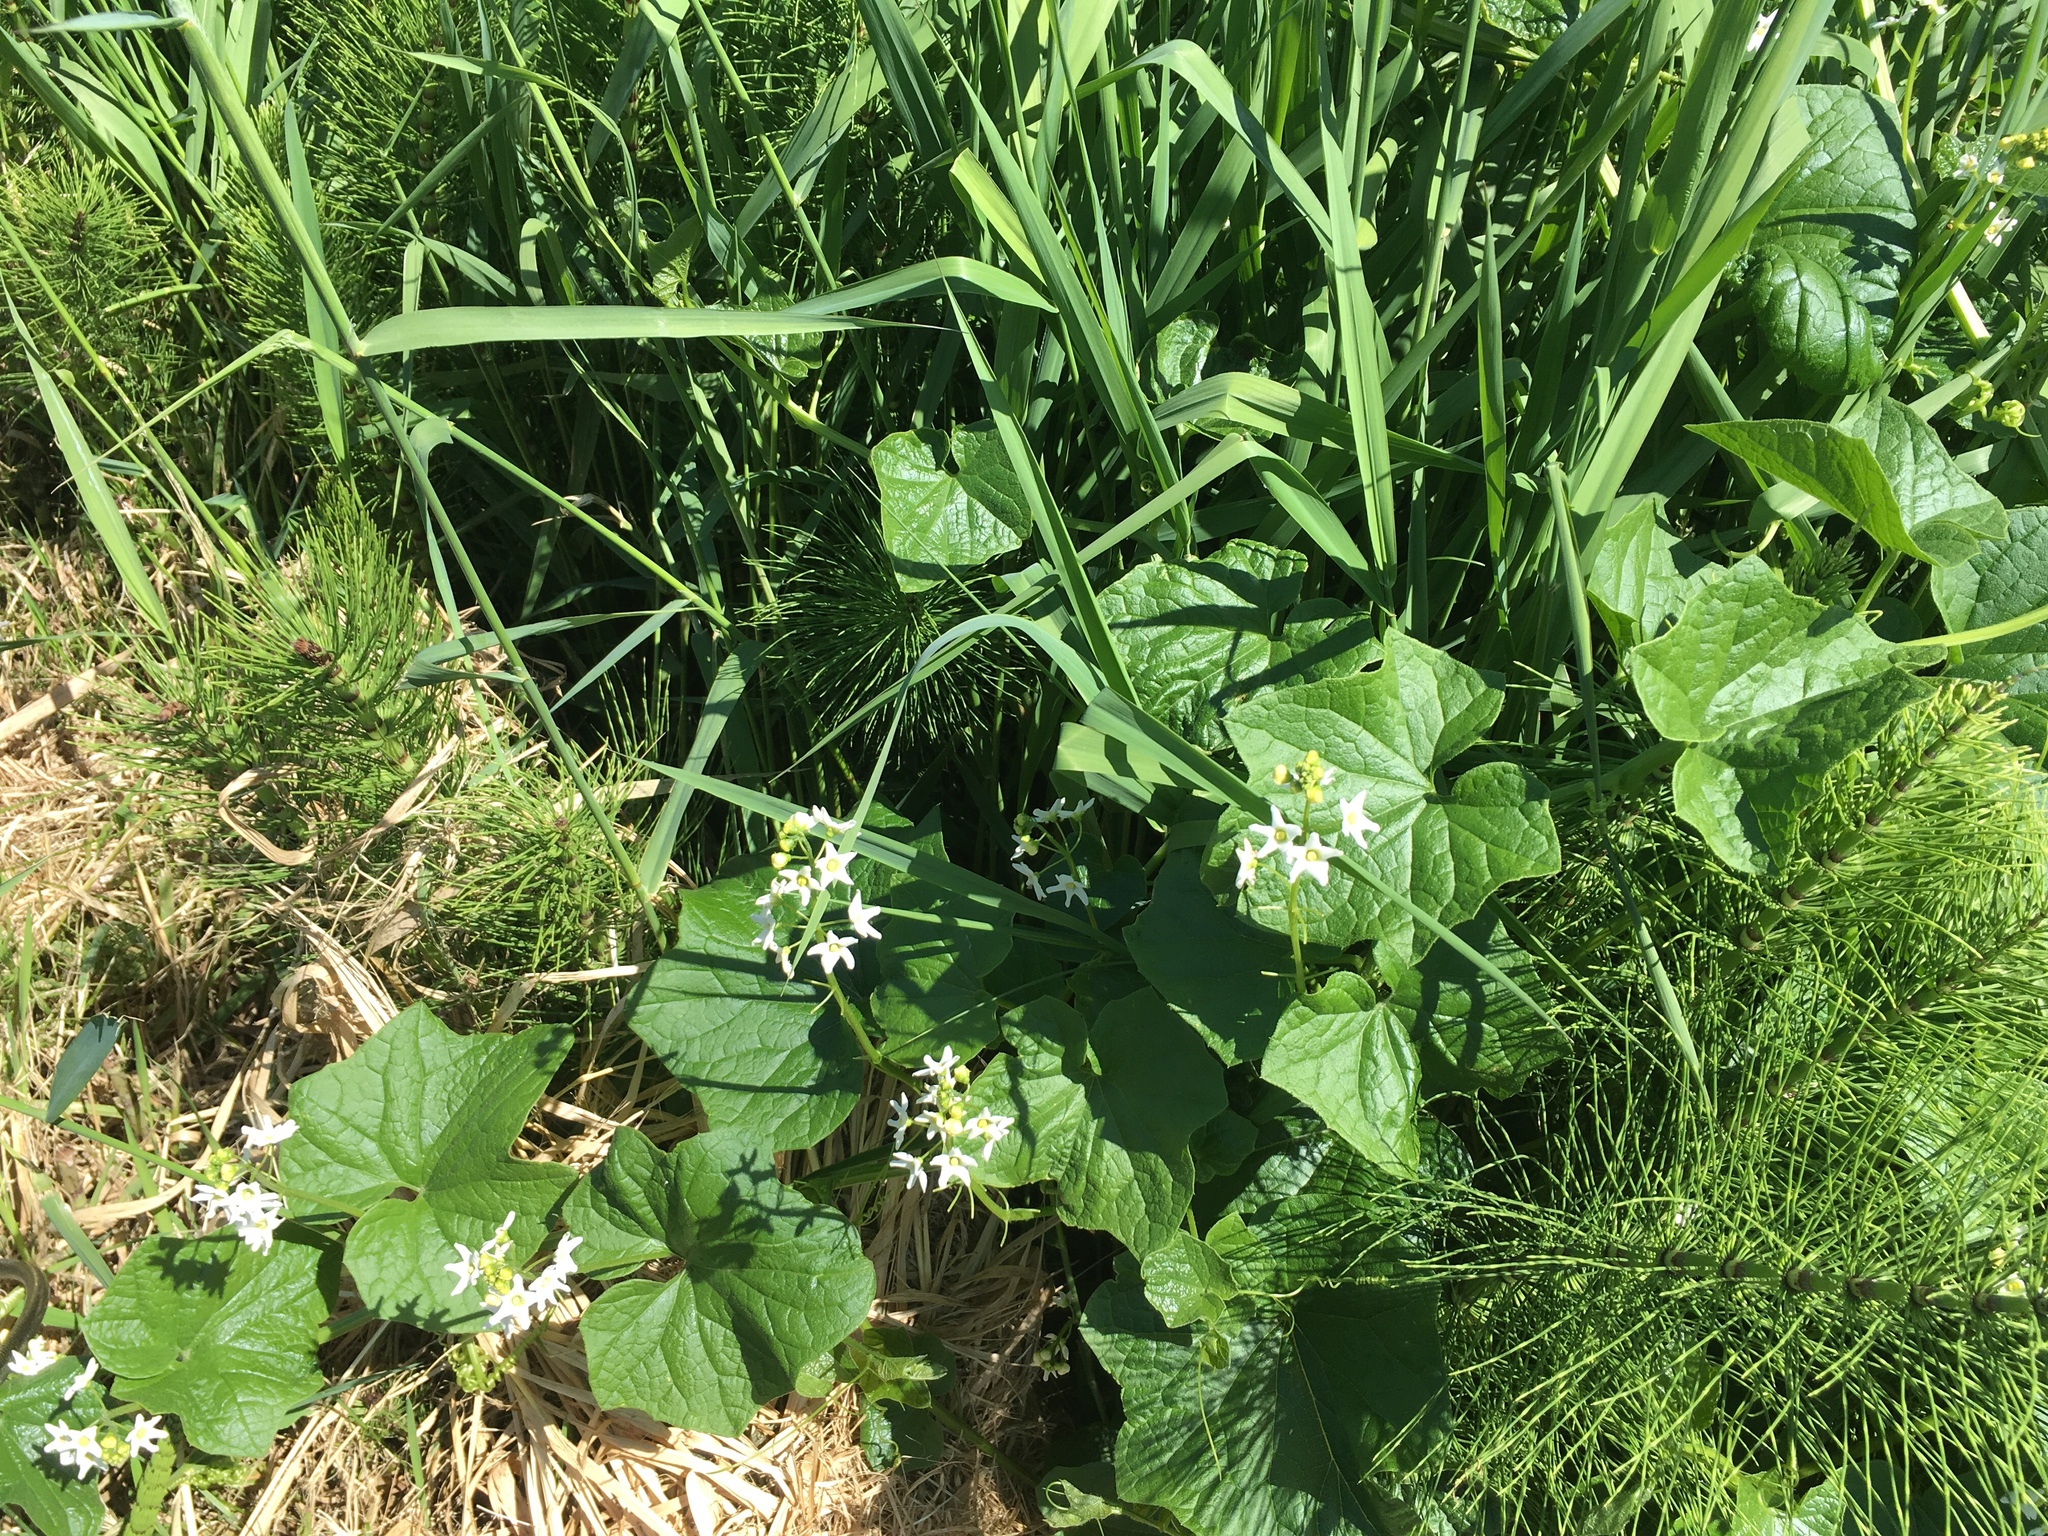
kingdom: Plantae
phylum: Tracheophyta
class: Magnoliopsida
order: Cucurbitales
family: Cucurbitaceae
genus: Marah
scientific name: Marah oregana
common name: Coastal manroot
